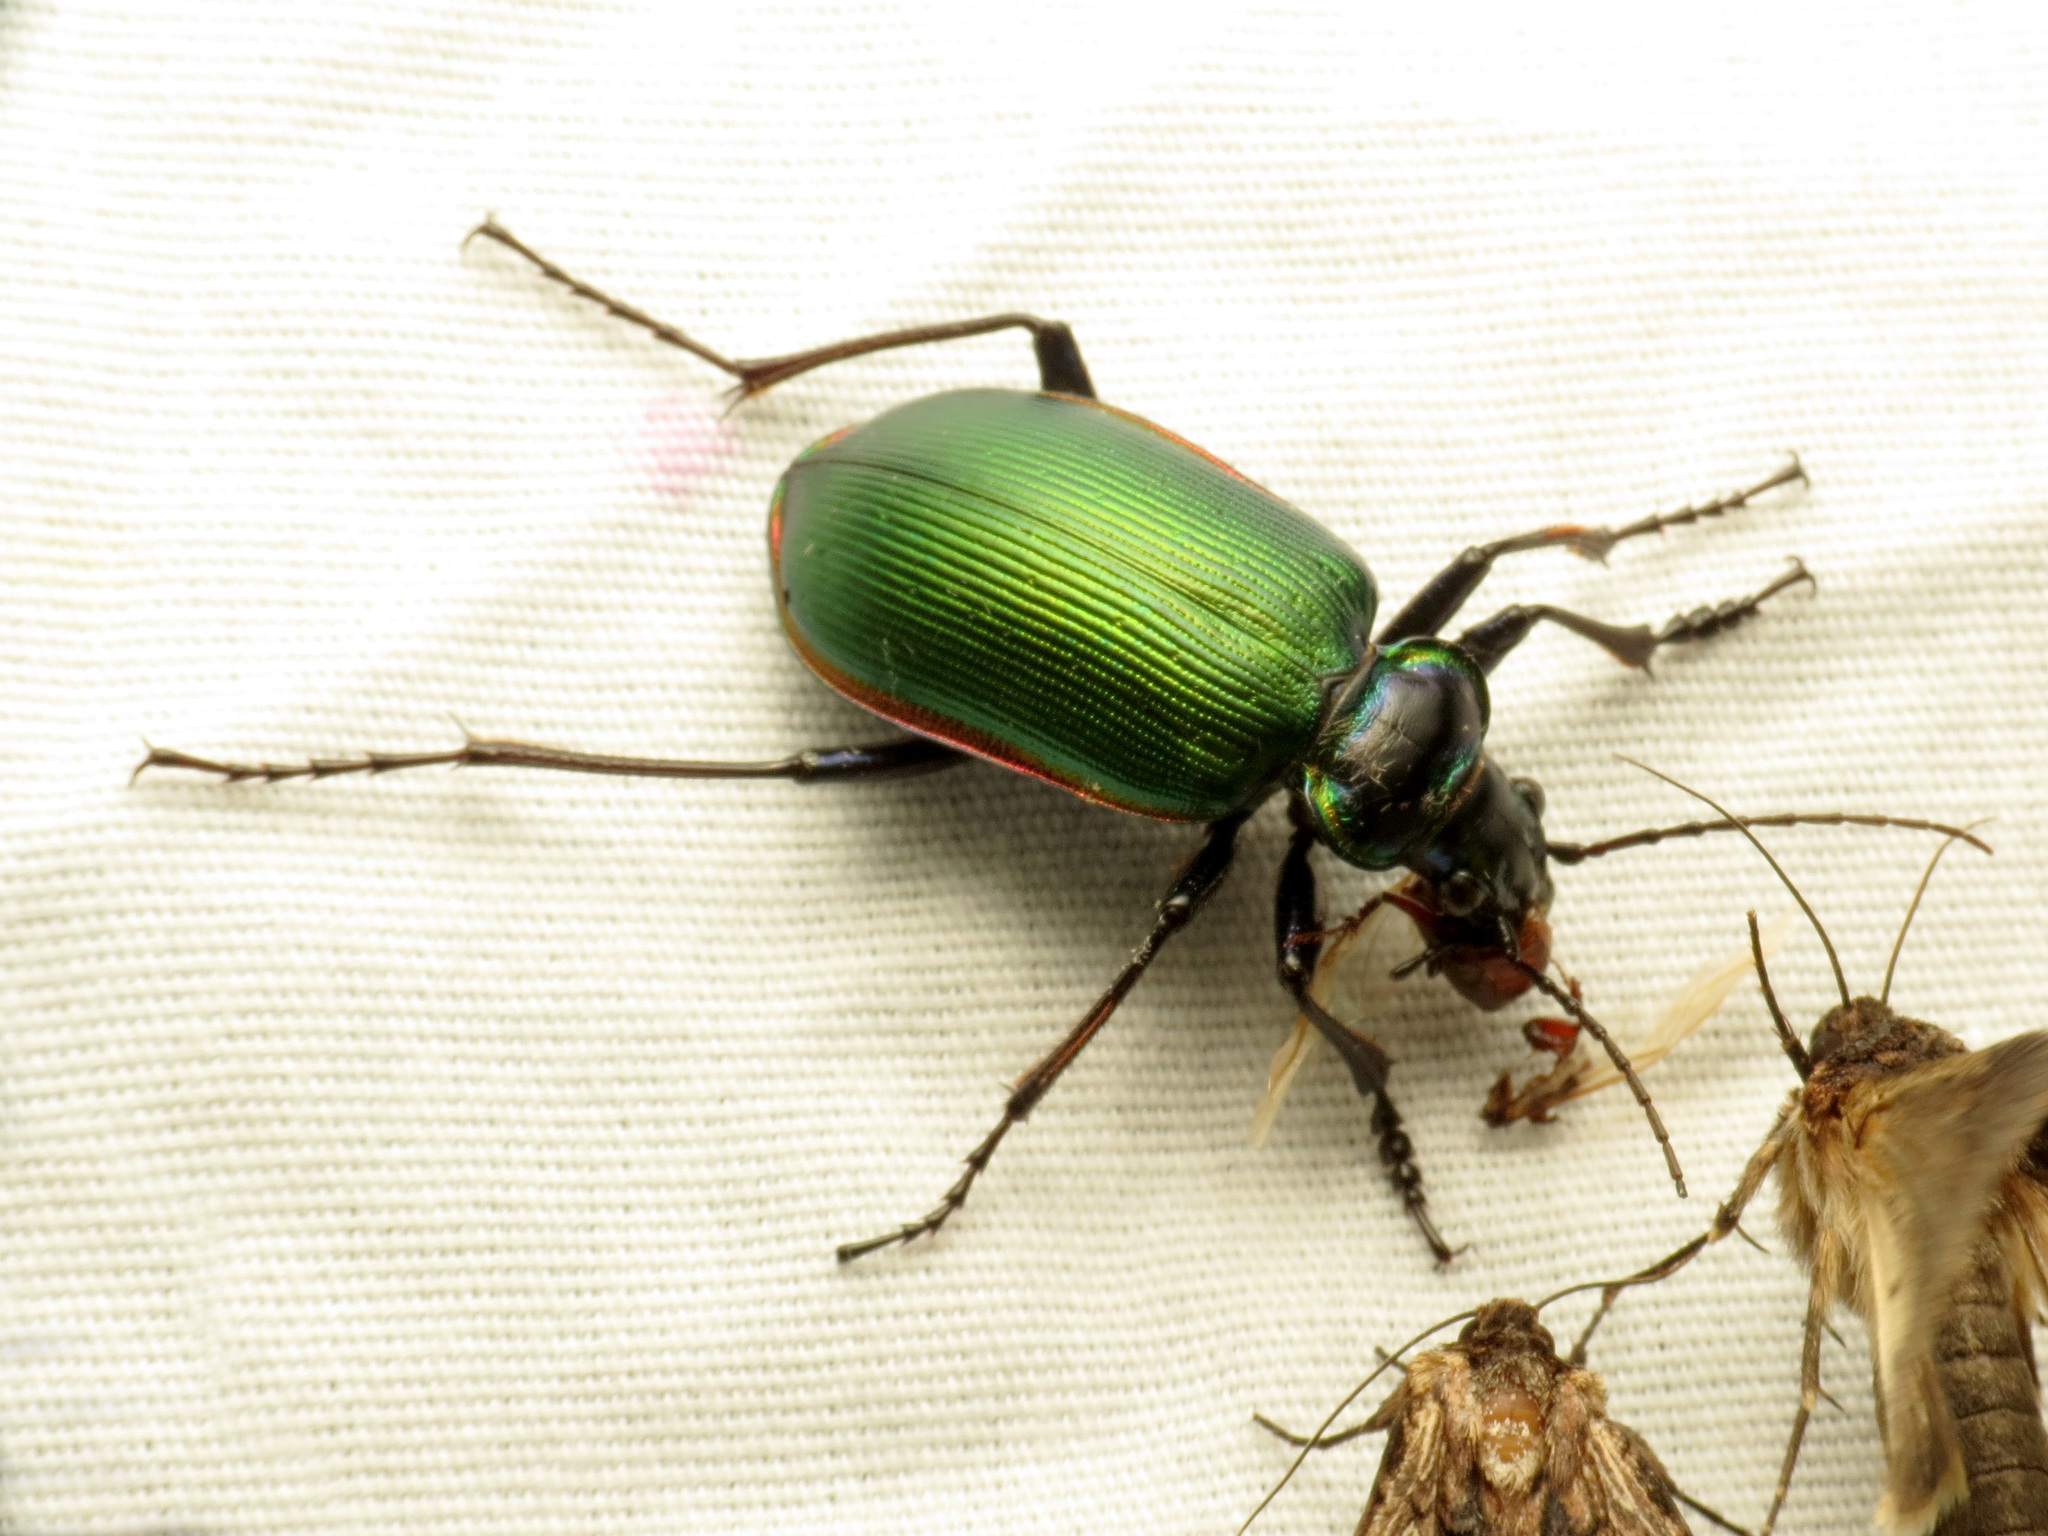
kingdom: Animalia
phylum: Arthropoda
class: Insecta
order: Coleoptera
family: Carabidae
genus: Calosoma
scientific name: Calosoma scrutator
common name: Fiery searcher beetle
